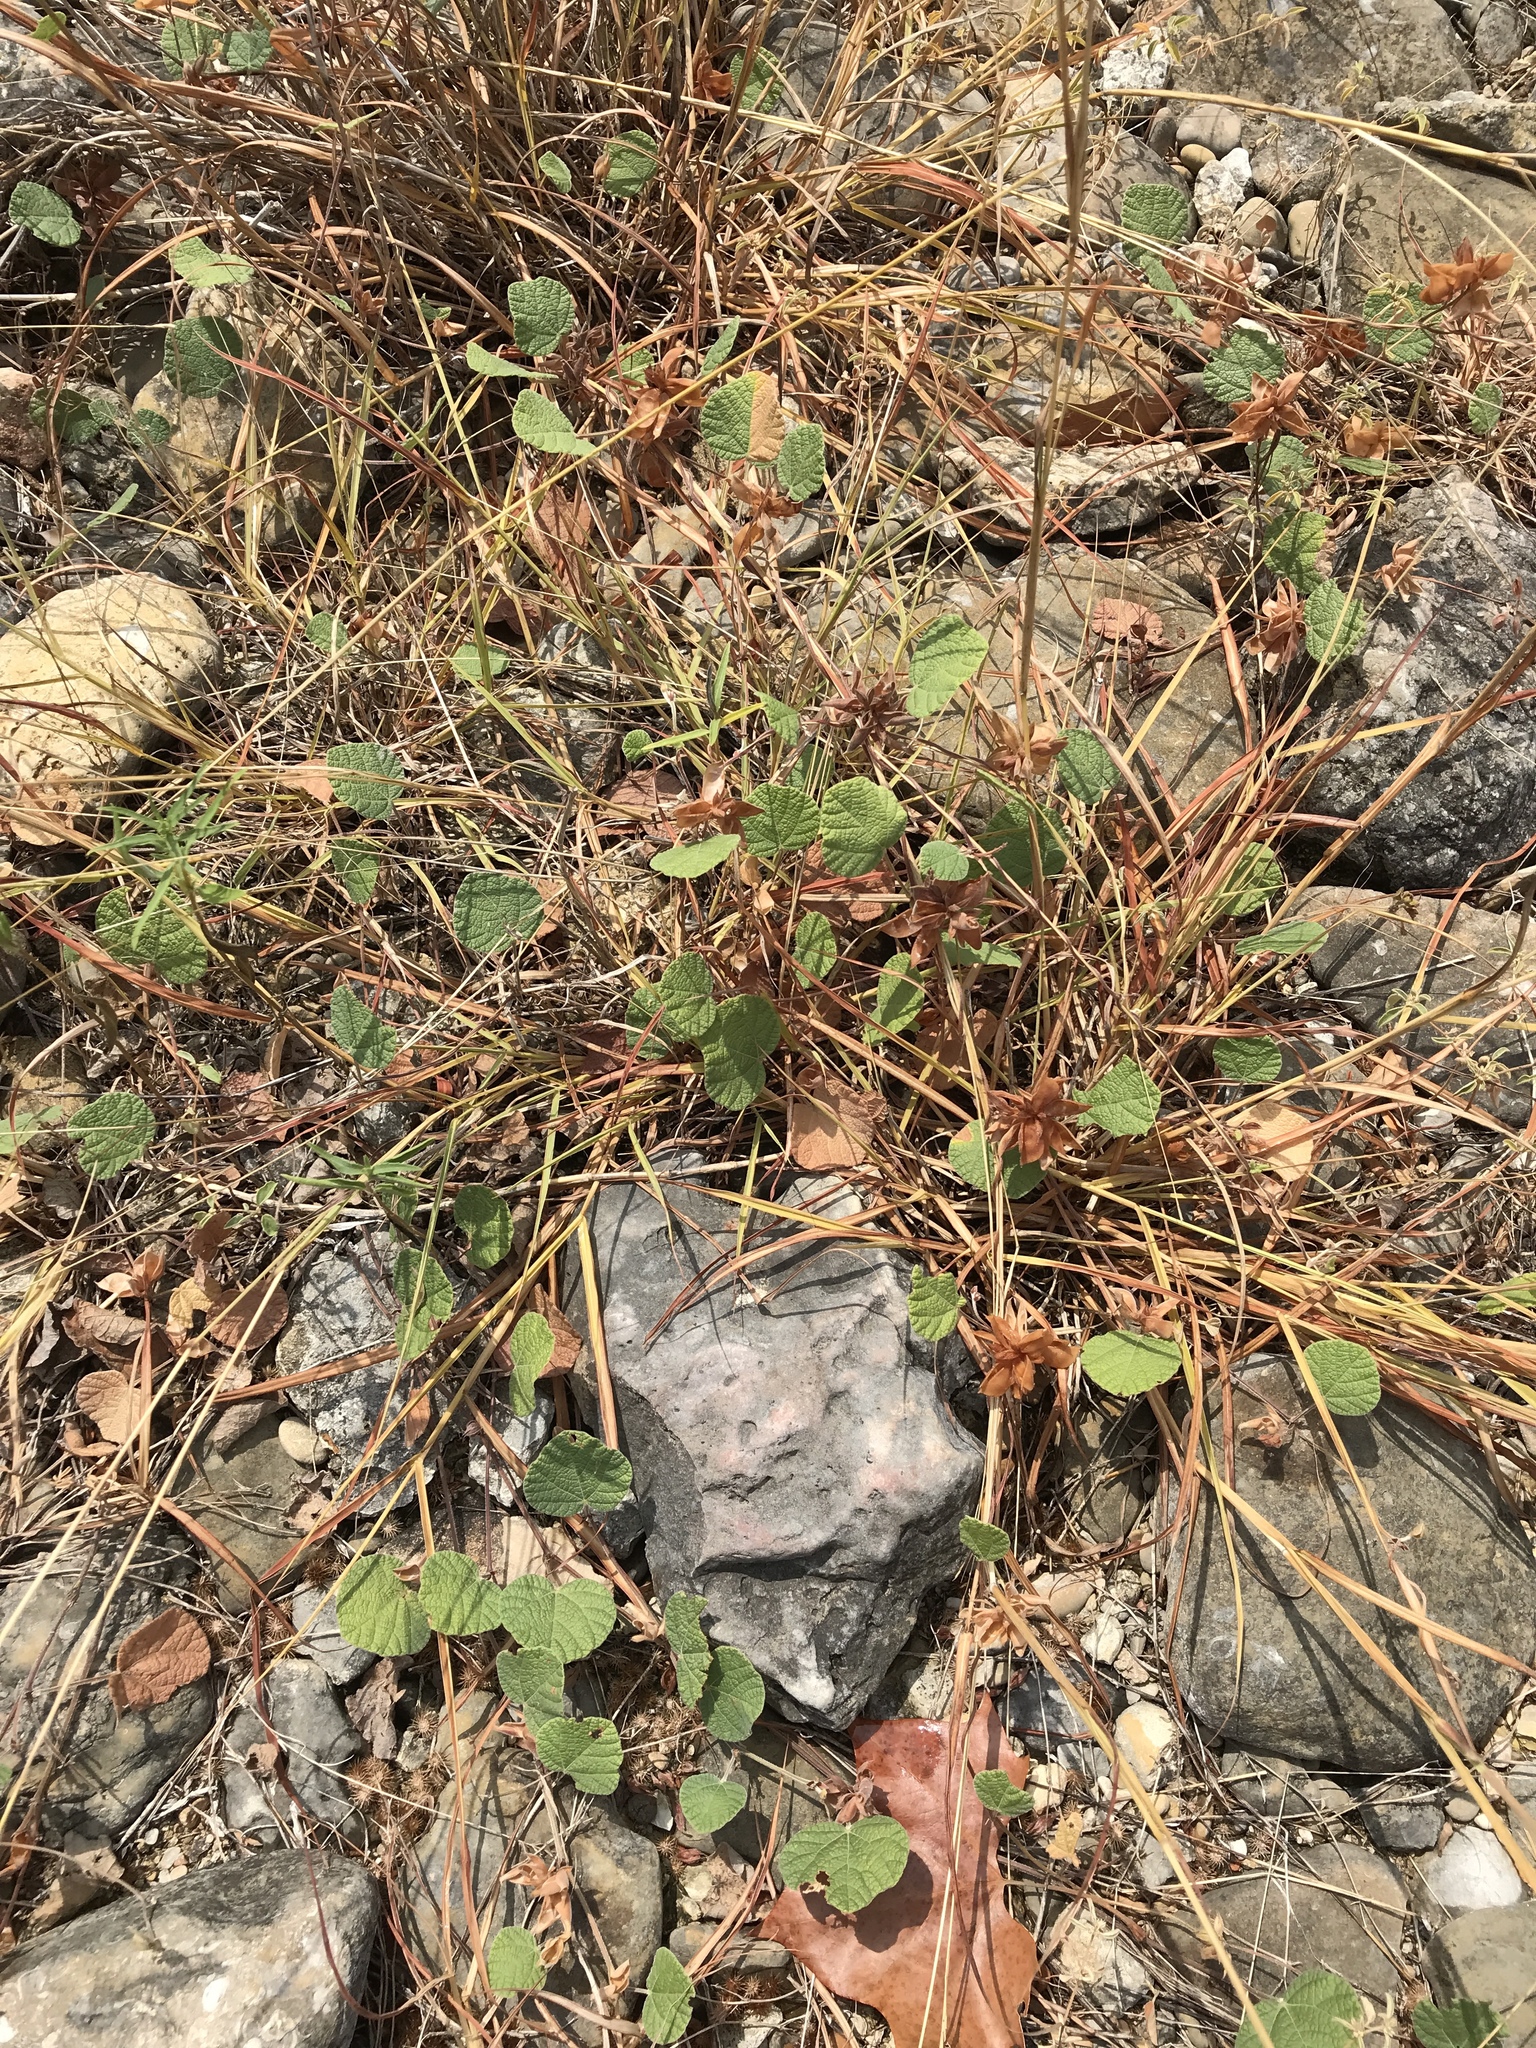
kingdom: Plantae
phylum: Tracheophyta
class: Magnoliopsida
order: Fabales
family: Fabaceae
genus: Rhynchosia
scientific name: Rhynchosia americana
